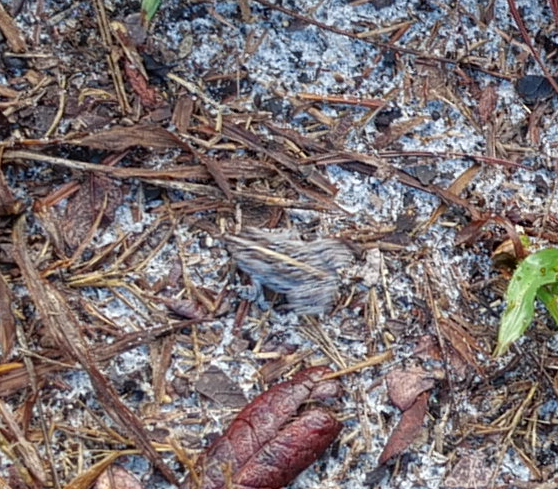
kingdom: Animalia
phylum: Chordata
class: Amphibia
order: Anura
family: Bufonidae
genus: Anaxyrus
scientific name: Anaxyrus quercicus
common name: Oak toad
